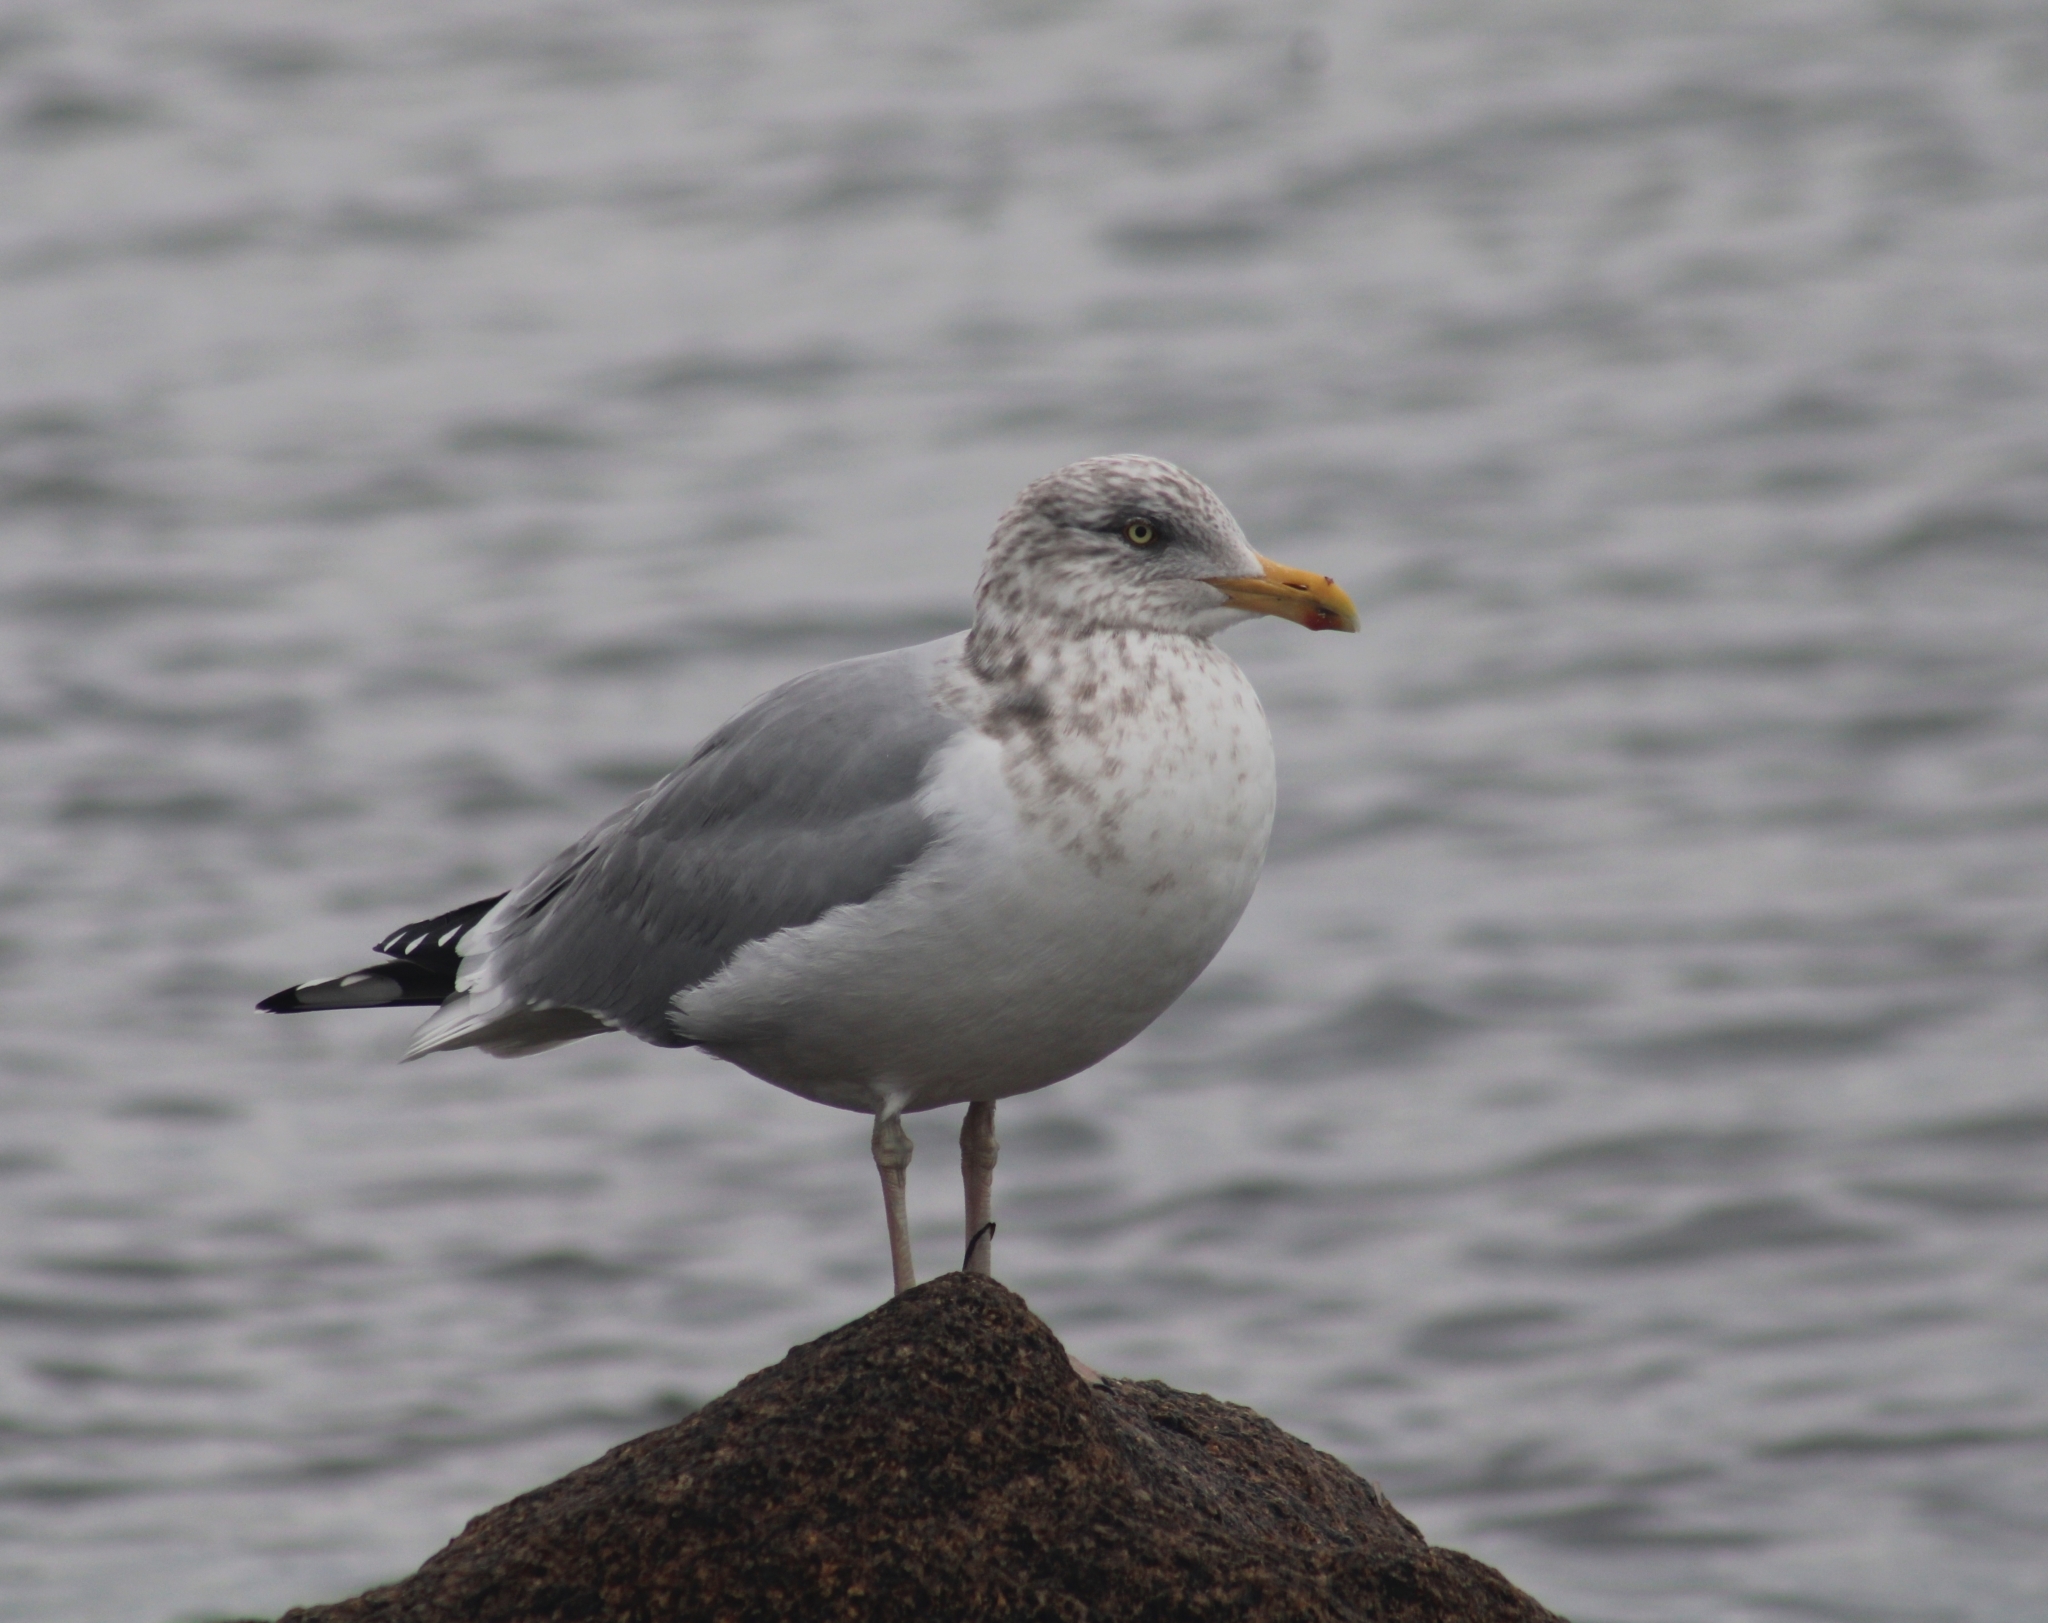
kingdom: Animalia
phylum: Chordata
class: Aves
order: Charadriiformes
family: Laridae
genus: Larus
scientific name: Larus argentatus
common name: Herring gull
